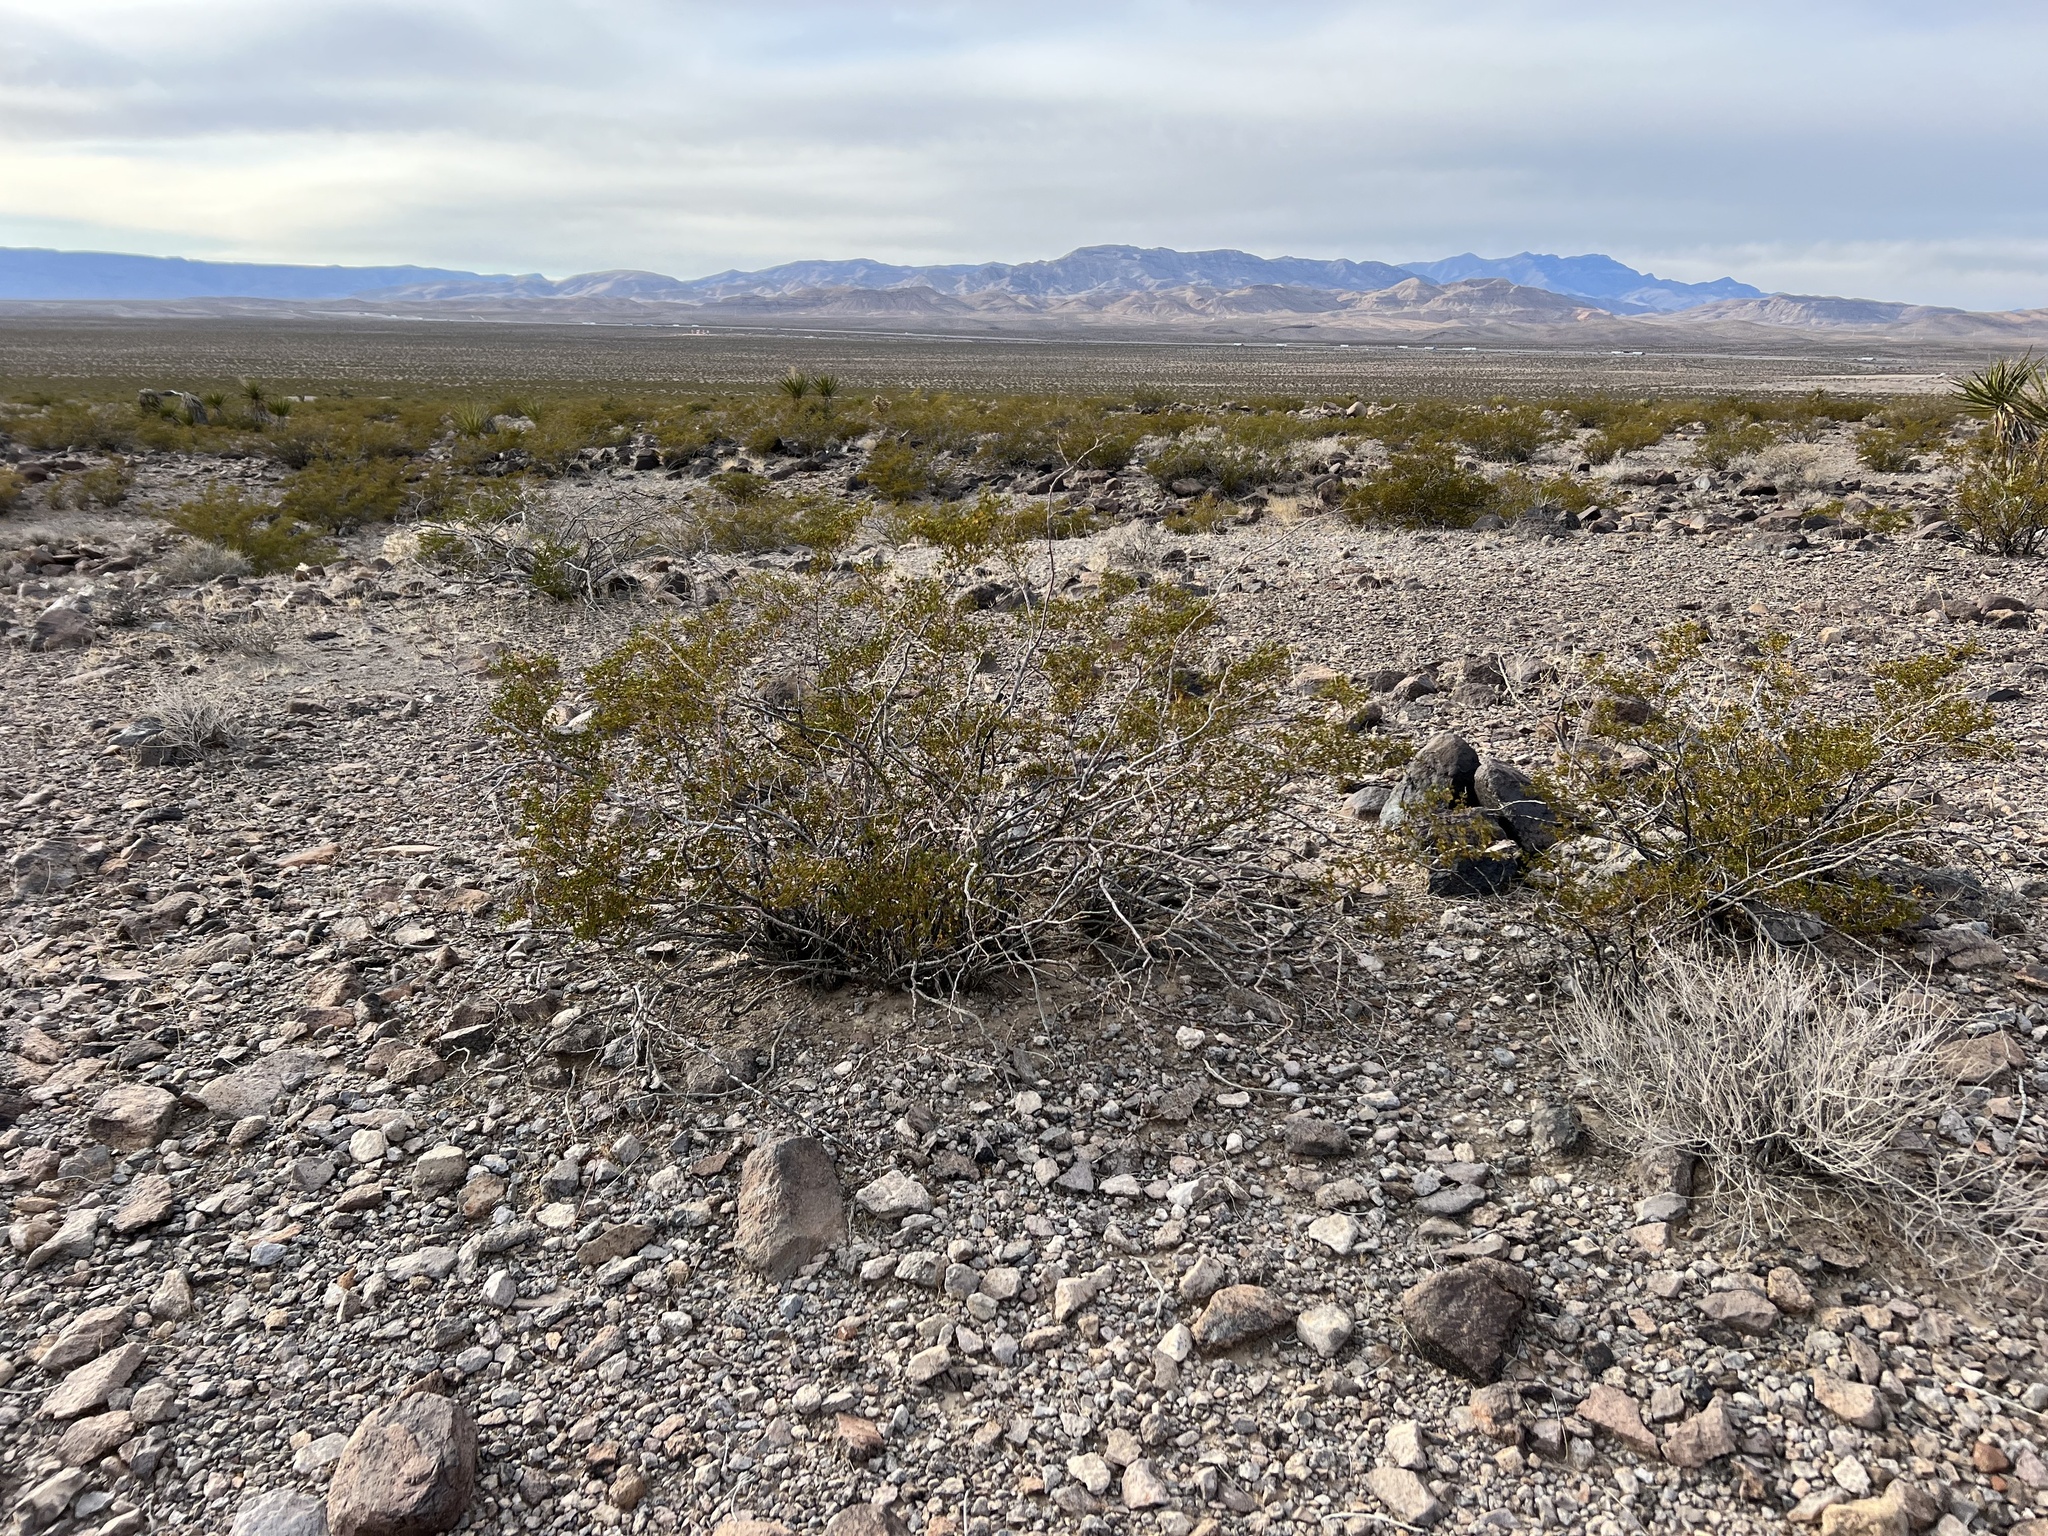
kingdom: Plantae
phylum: Tracheophyta
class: Magnoliopsida
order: Zygophyllales
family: Zygophyllaceae
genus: Larrea
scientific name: Larrea tridentata
